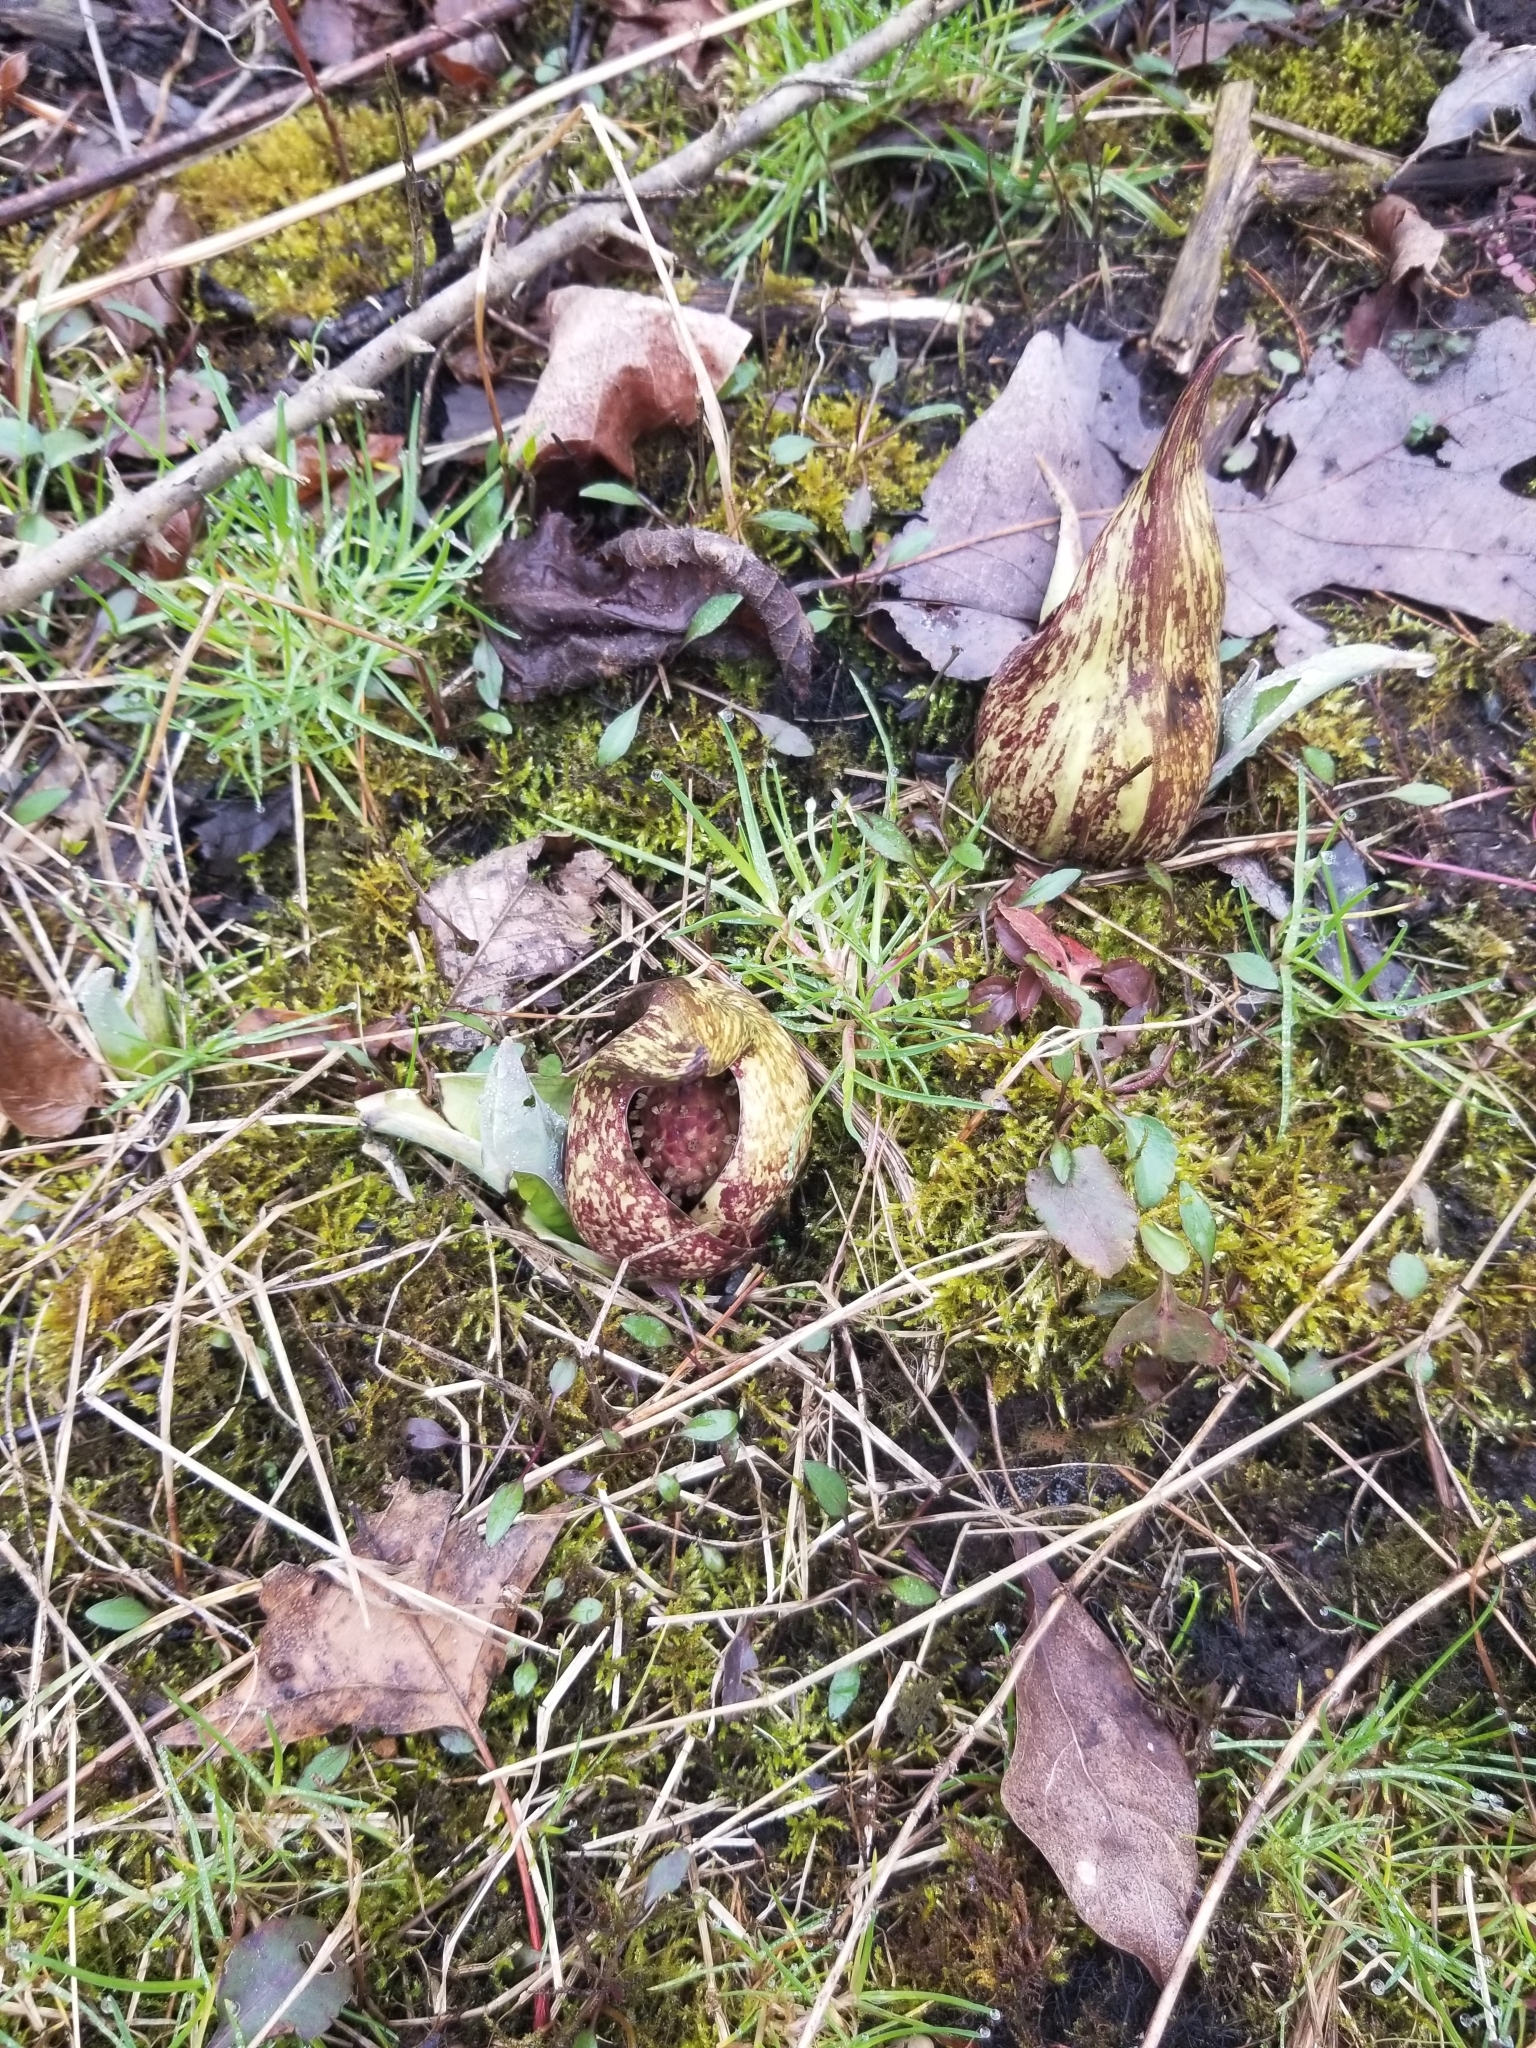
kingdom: Plantae
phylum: Tracheophyta
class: Liliopsida
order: Alismatales
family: Araceae
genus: Symplocarpus
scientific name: Symplocarpus foetidus
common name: Eastern skunk cabbage
